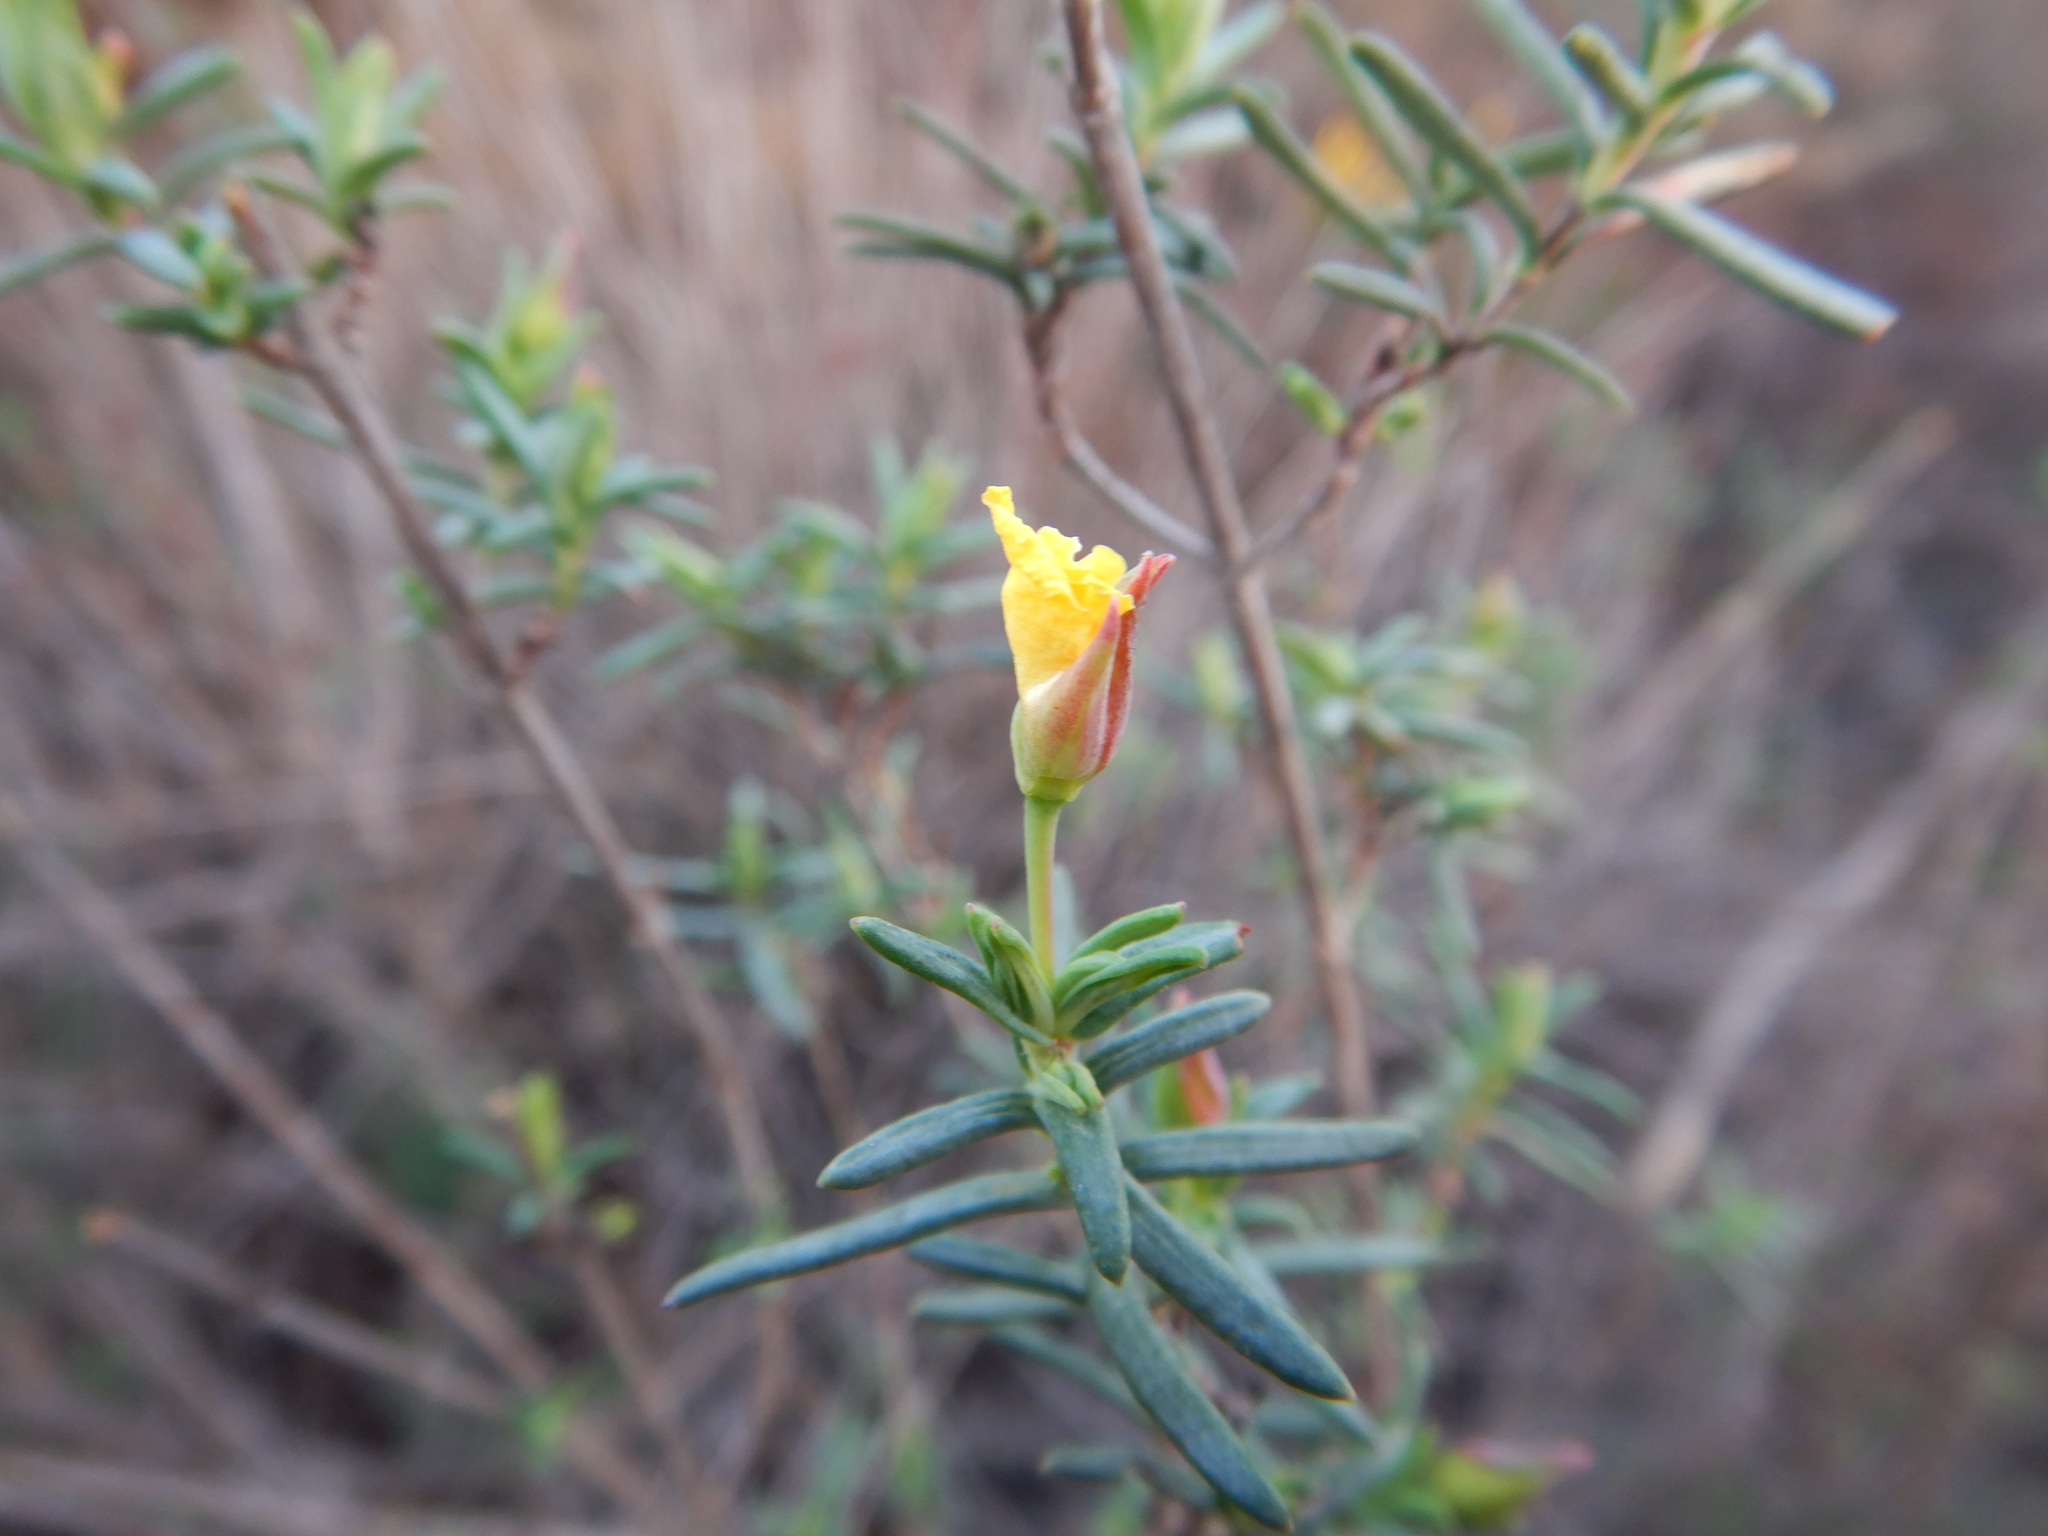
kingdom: Plantae
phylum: Tracheophyta
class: Magnoliopsida
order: Malvales
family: Cistaceae
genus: Halimium
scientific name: Halimium calycinum
